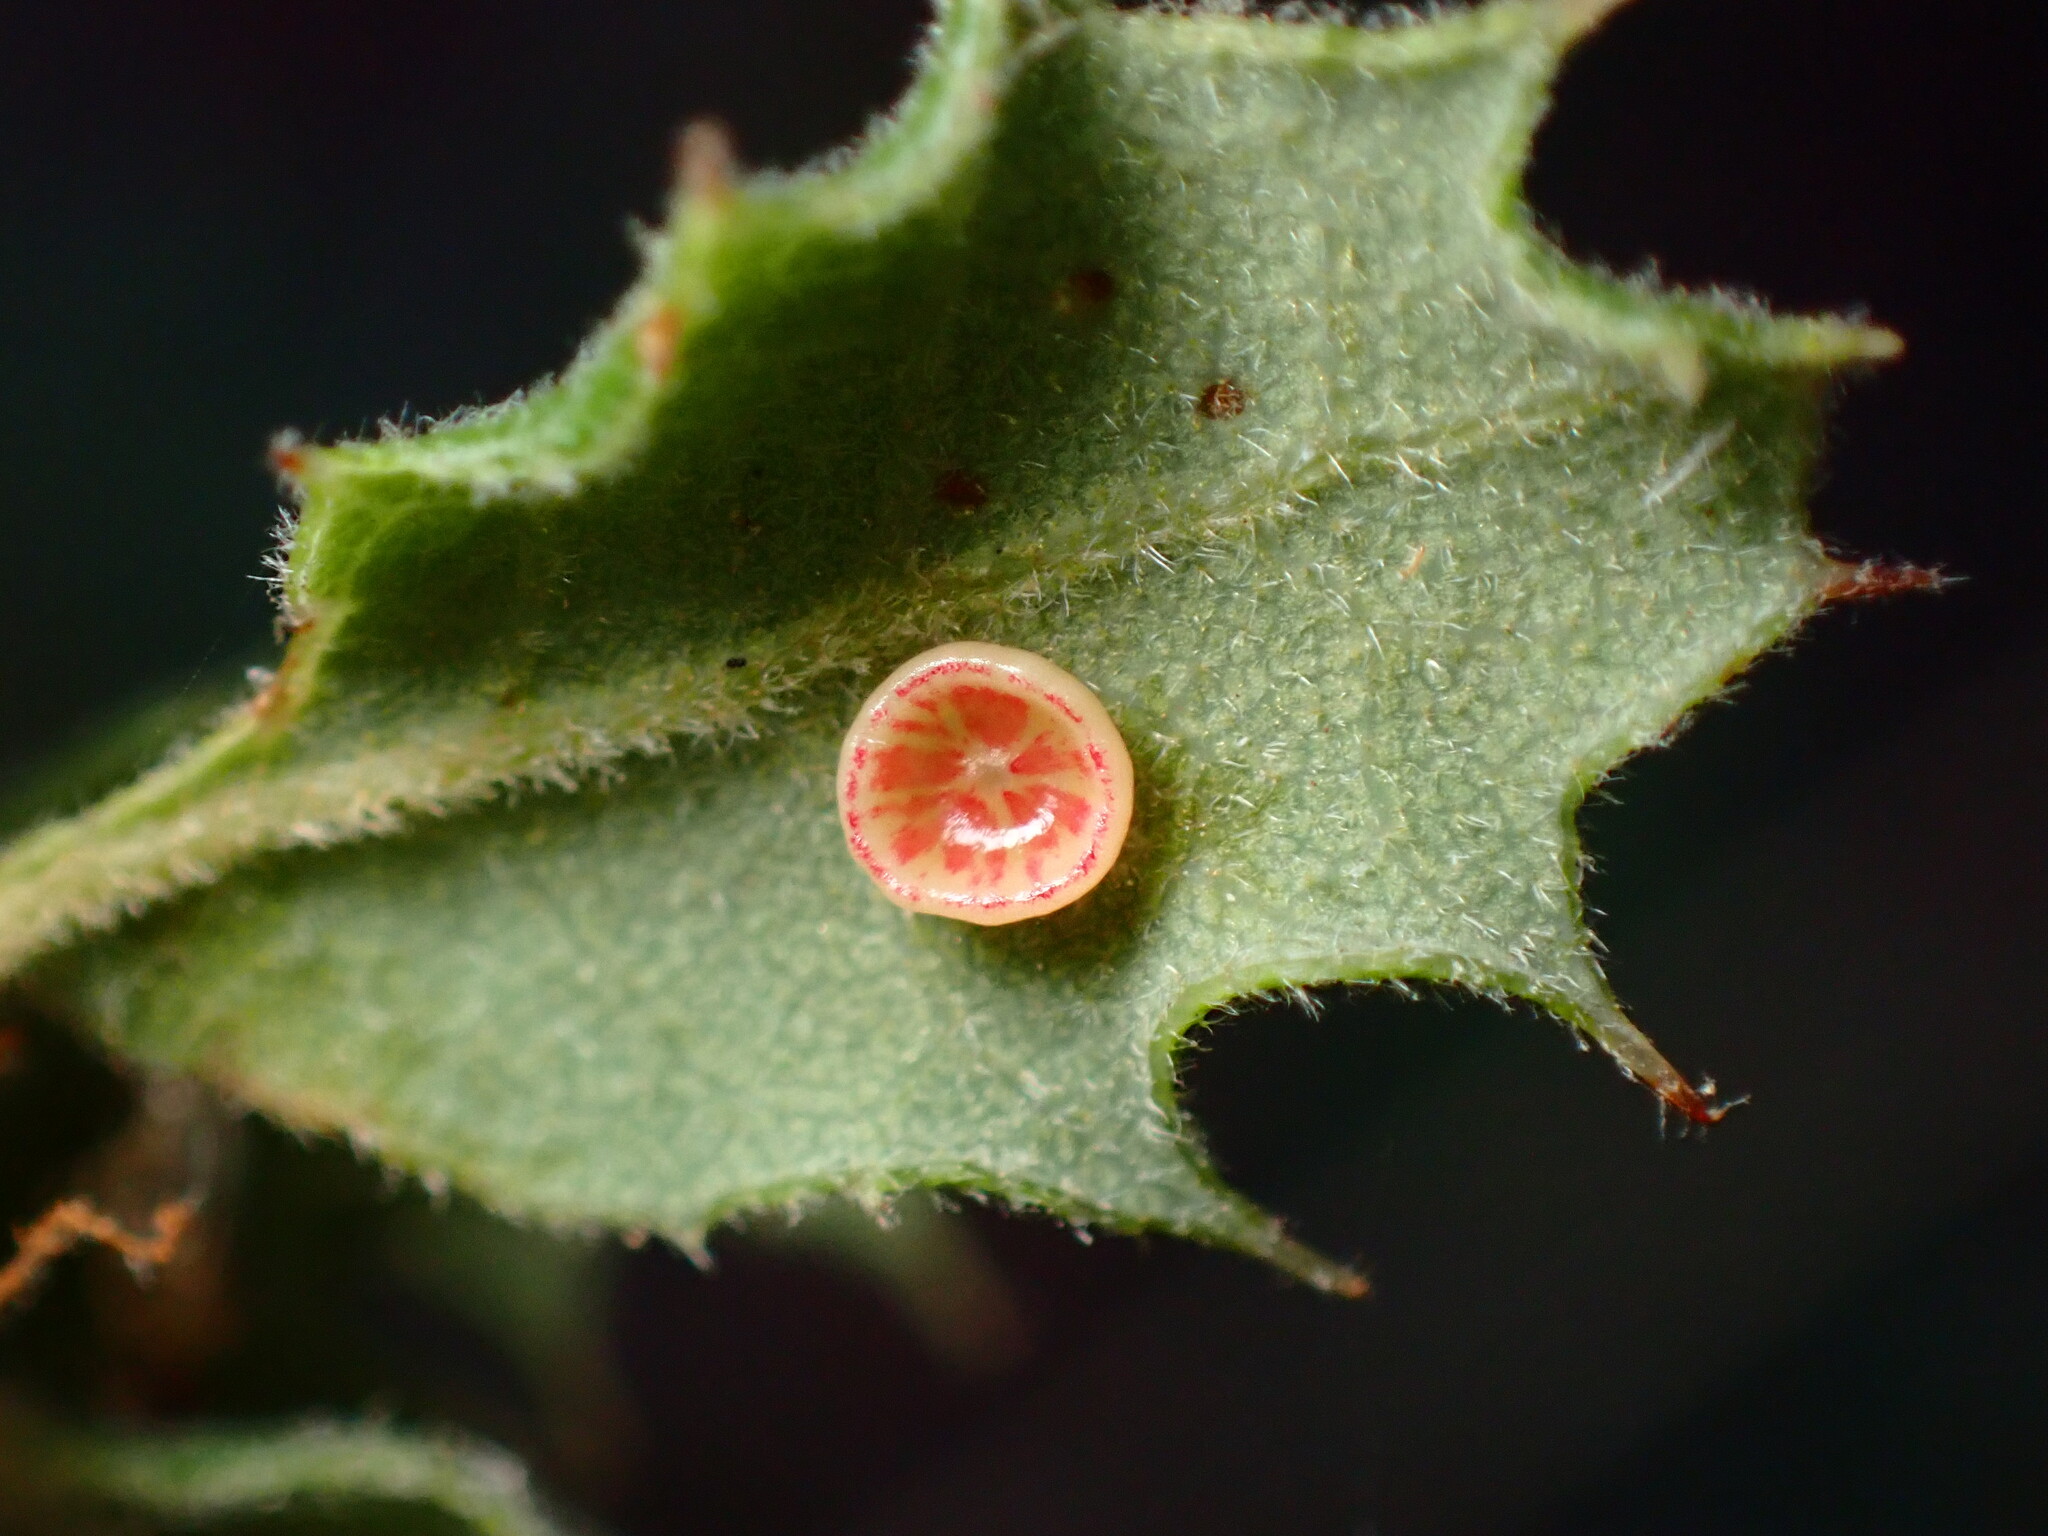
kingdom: Animalia
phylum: Arthropoda
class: Insecta
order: Hymenoptera
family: Cynipidae
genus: Andricus
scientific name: Andricus
